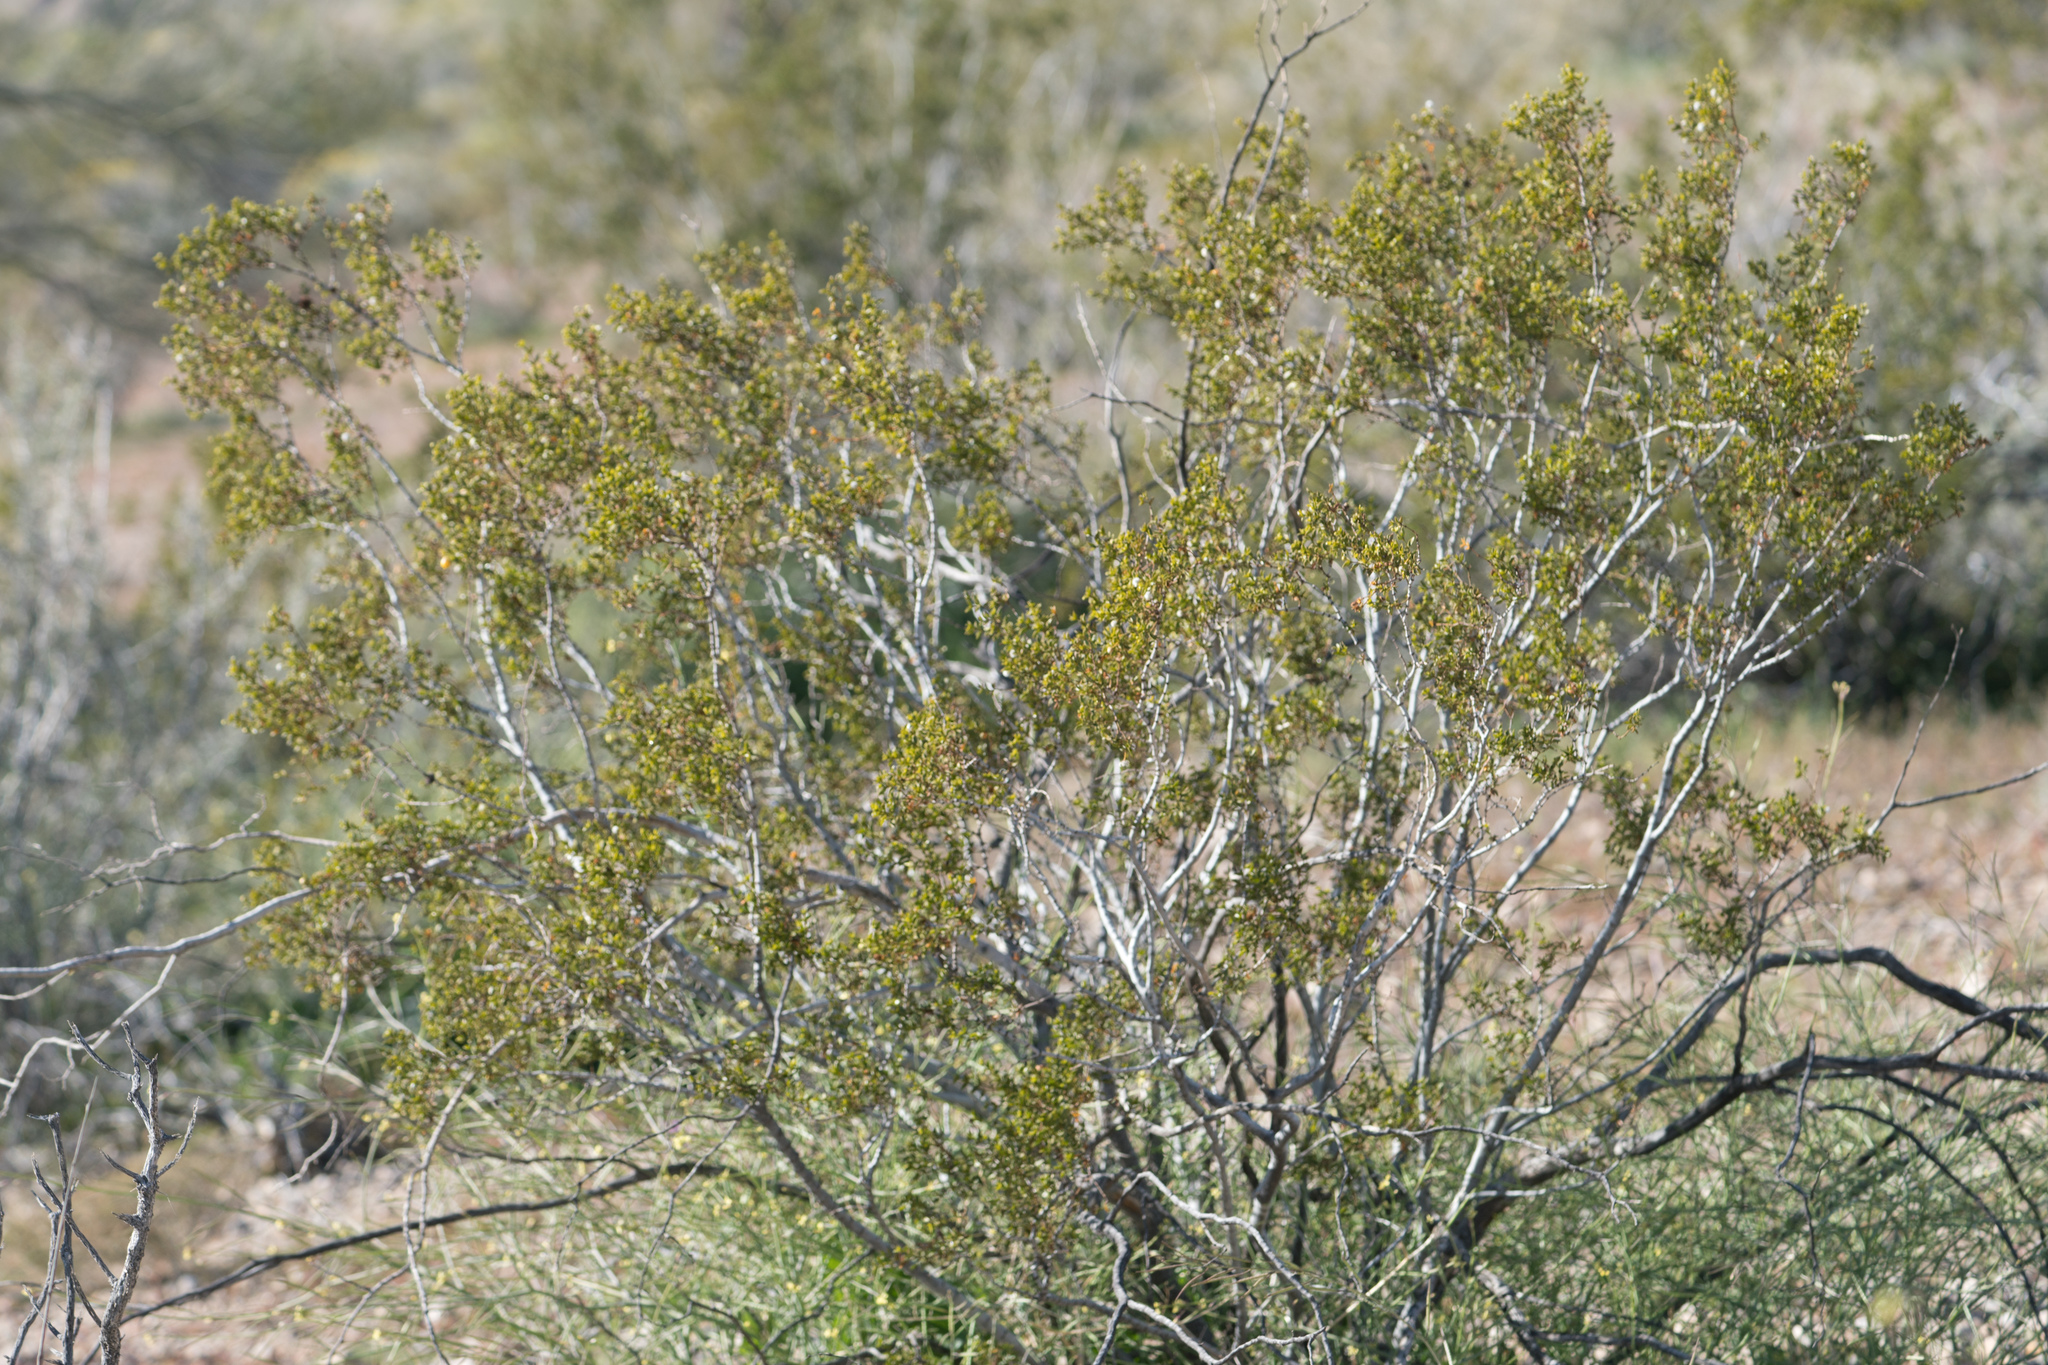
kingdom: Plantae
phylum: Tracheophyta
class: Magnoliopsida
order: Zygophyllales
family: Zygophyllaceae
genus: Larrea
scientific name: Larrea tridentata
